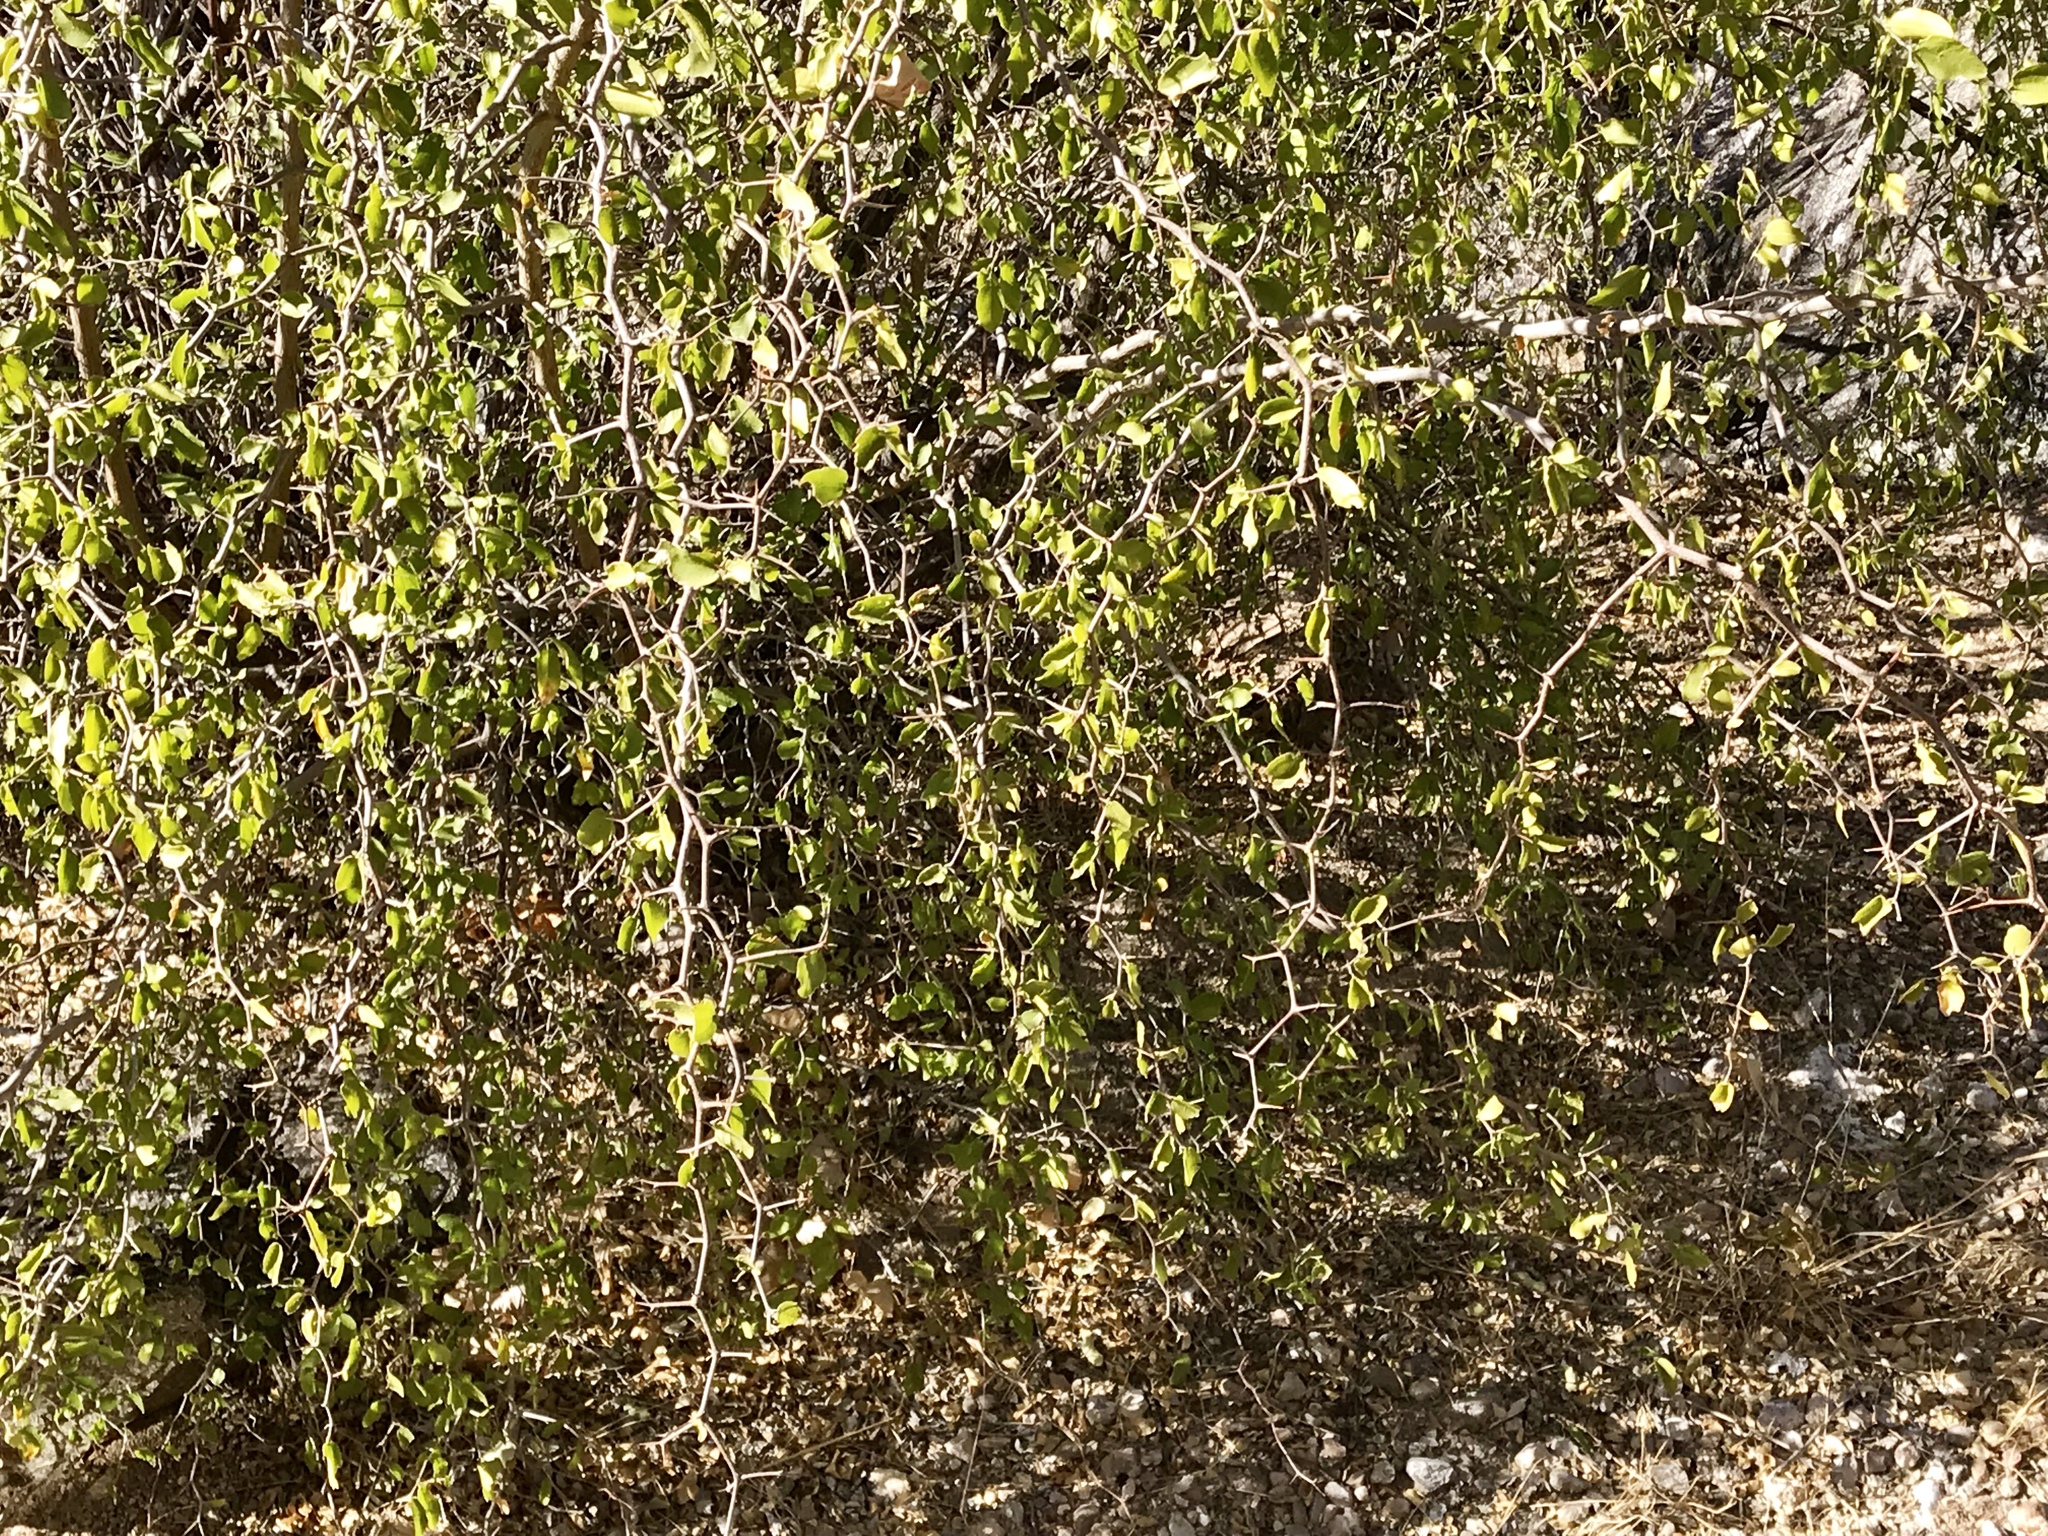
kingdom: Plantae
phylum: Tracheophyta
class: Magnoliopsida
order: Rosales
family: Cannabaceae
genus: Celtis
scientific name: Celtis pallida
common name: Desert hackberry
